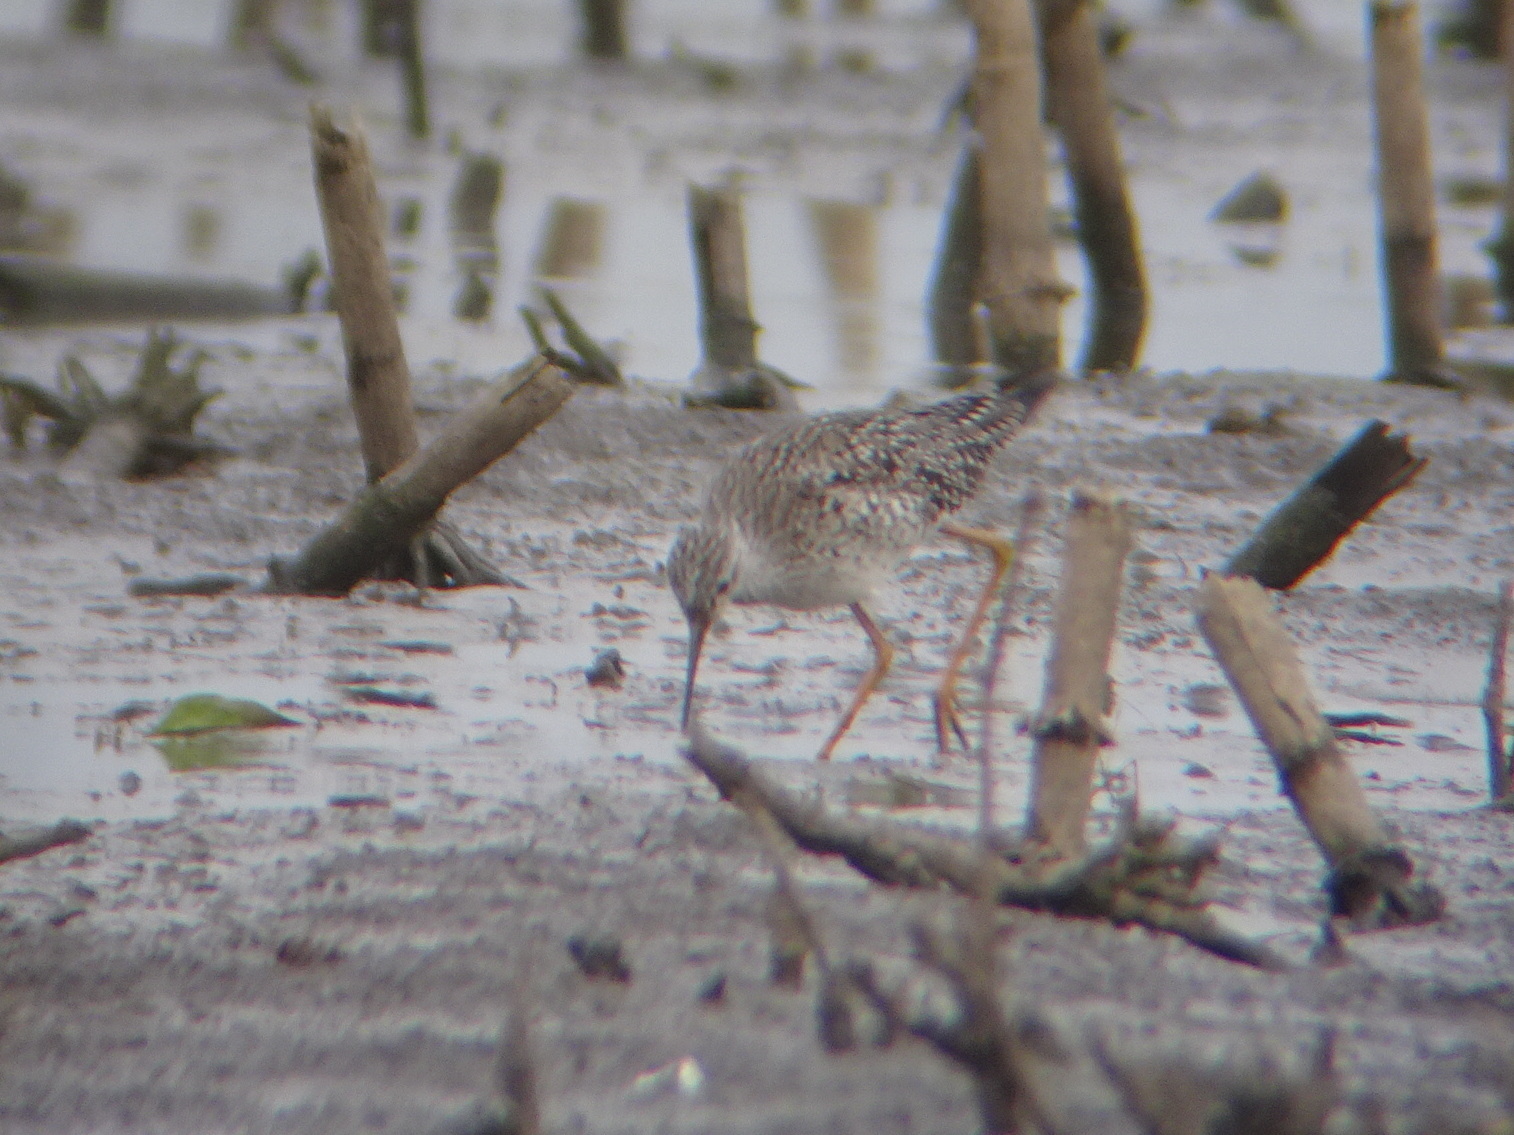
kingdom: Animalia
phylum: Chordata
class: Aves
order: Charadriiformes
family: Scolopacidae
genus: Tringa
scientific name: Tringa flavipes
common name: Lesser yellowlegs
